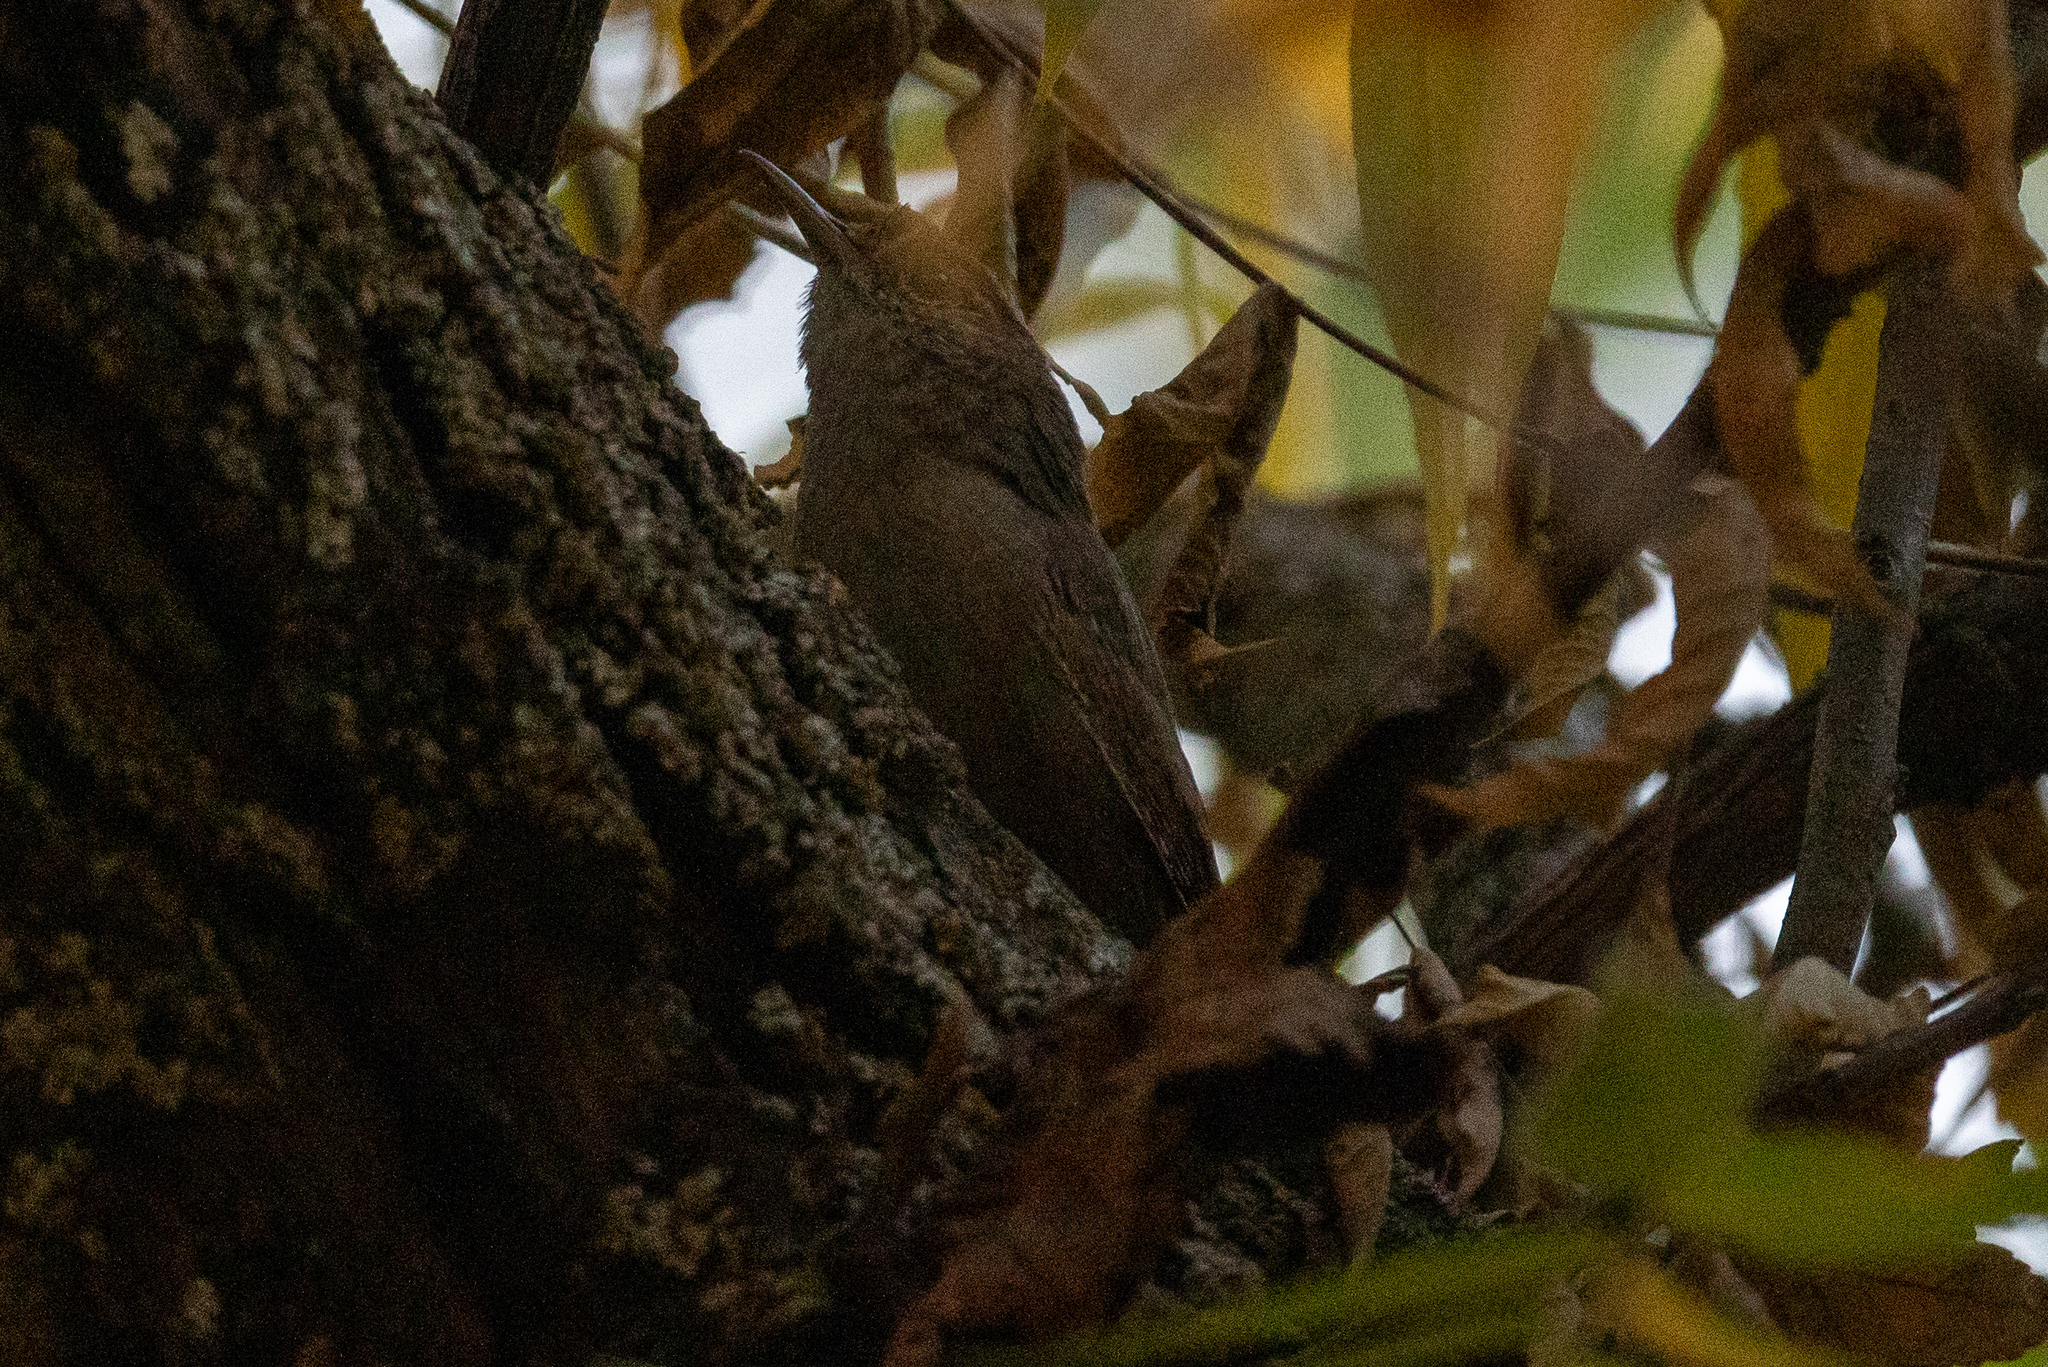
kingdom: Animalia
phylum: Chordata
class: Aves
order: Passeriformes
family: Troglodytidae
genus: Troglodytes
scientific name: Troglodytes aedon
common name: House wren
